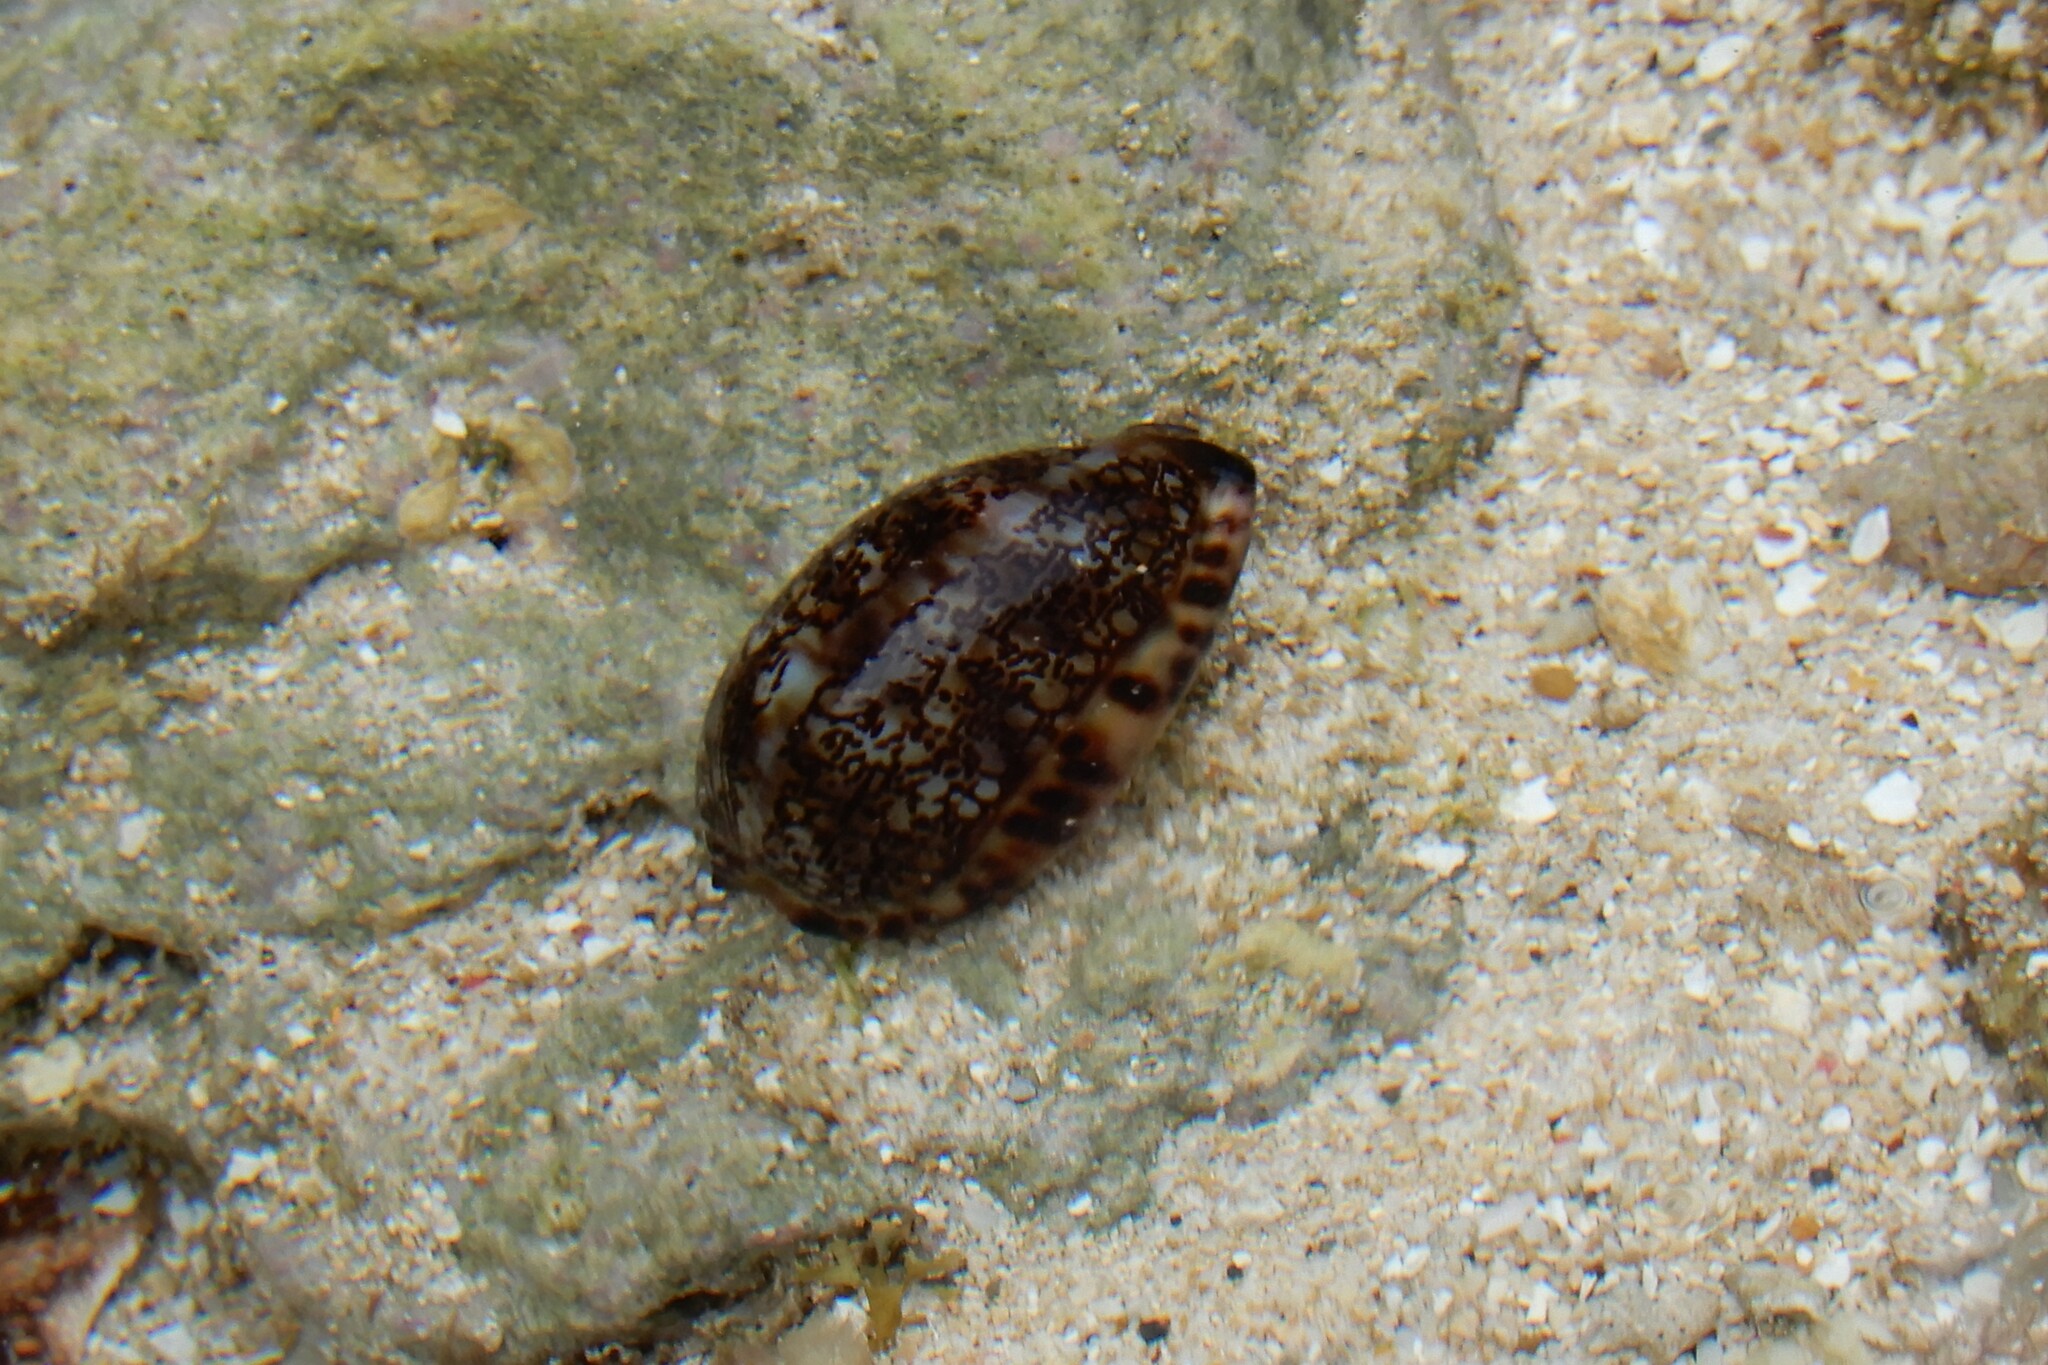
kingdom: Animalia
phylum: Mollusca
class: Gastropoda
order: Littorinimorpha
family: Cypraeidae
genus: Mauritia
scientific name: Mauritia arabica
